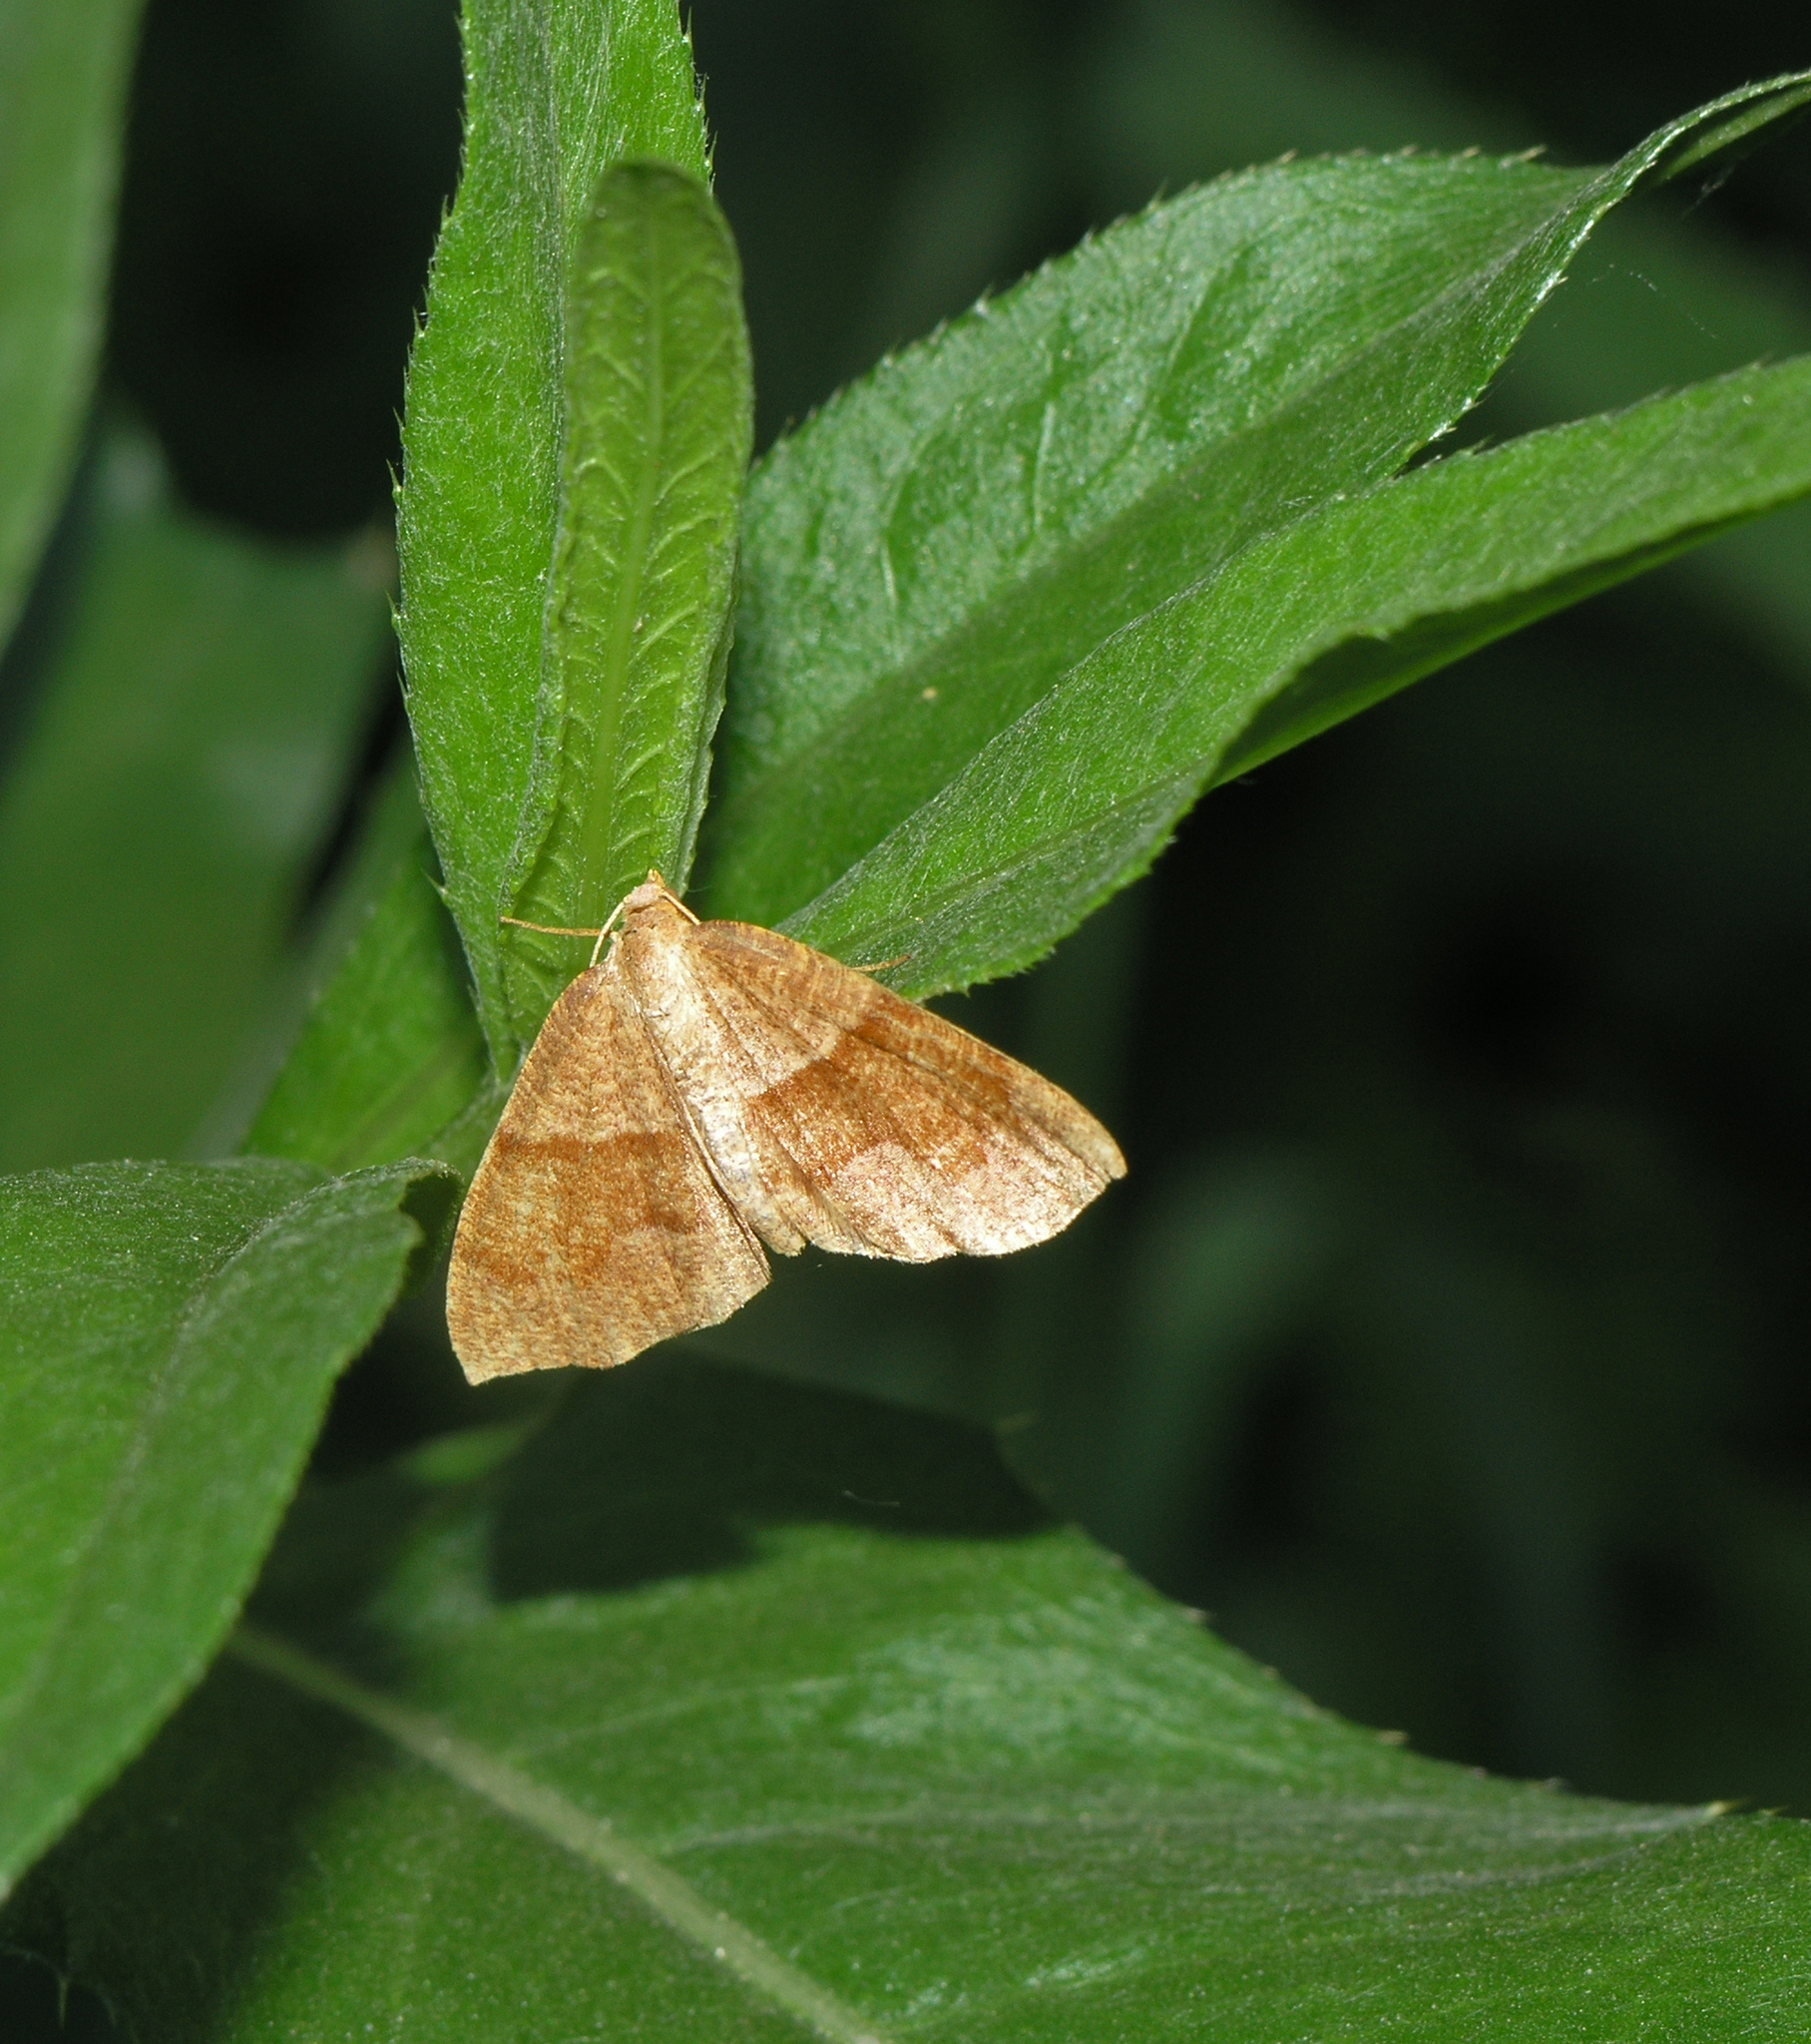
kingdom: Animalia
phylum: Arthropoda
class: Insecta
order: Lepidoptera
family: Geometridae
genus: Plagodis
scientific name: Plagodis pulveraria
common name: Barred umber
